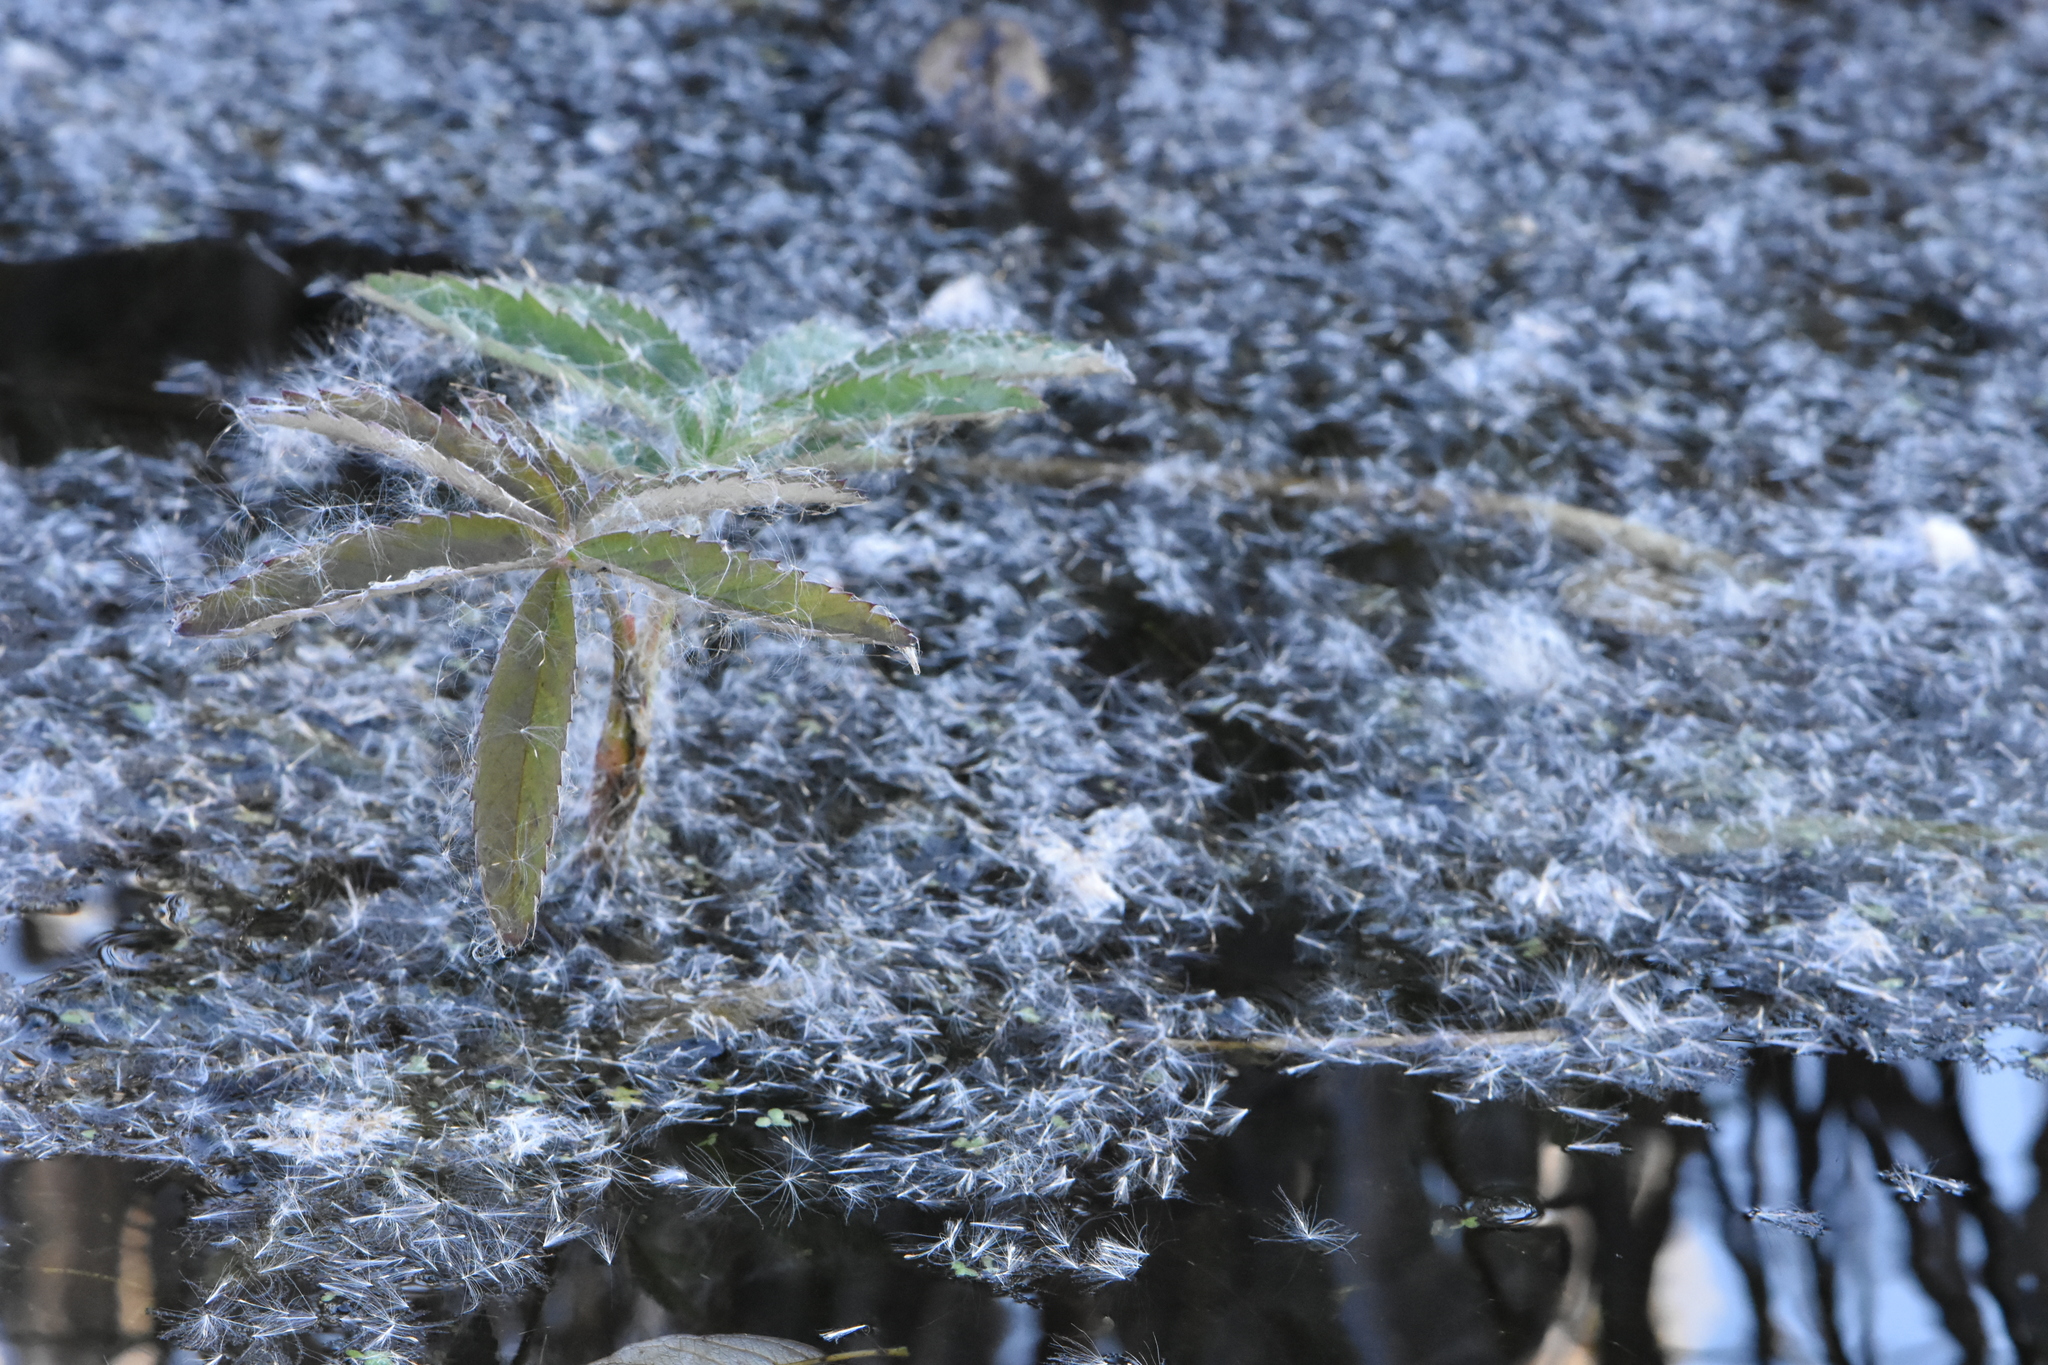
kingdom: Plantae
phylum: Tracheophyta
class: Magnoliopsida
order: Rosales
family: Rosaceae
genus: Comarum
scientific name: Comarum palustre
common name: Marsh cinquefoil
